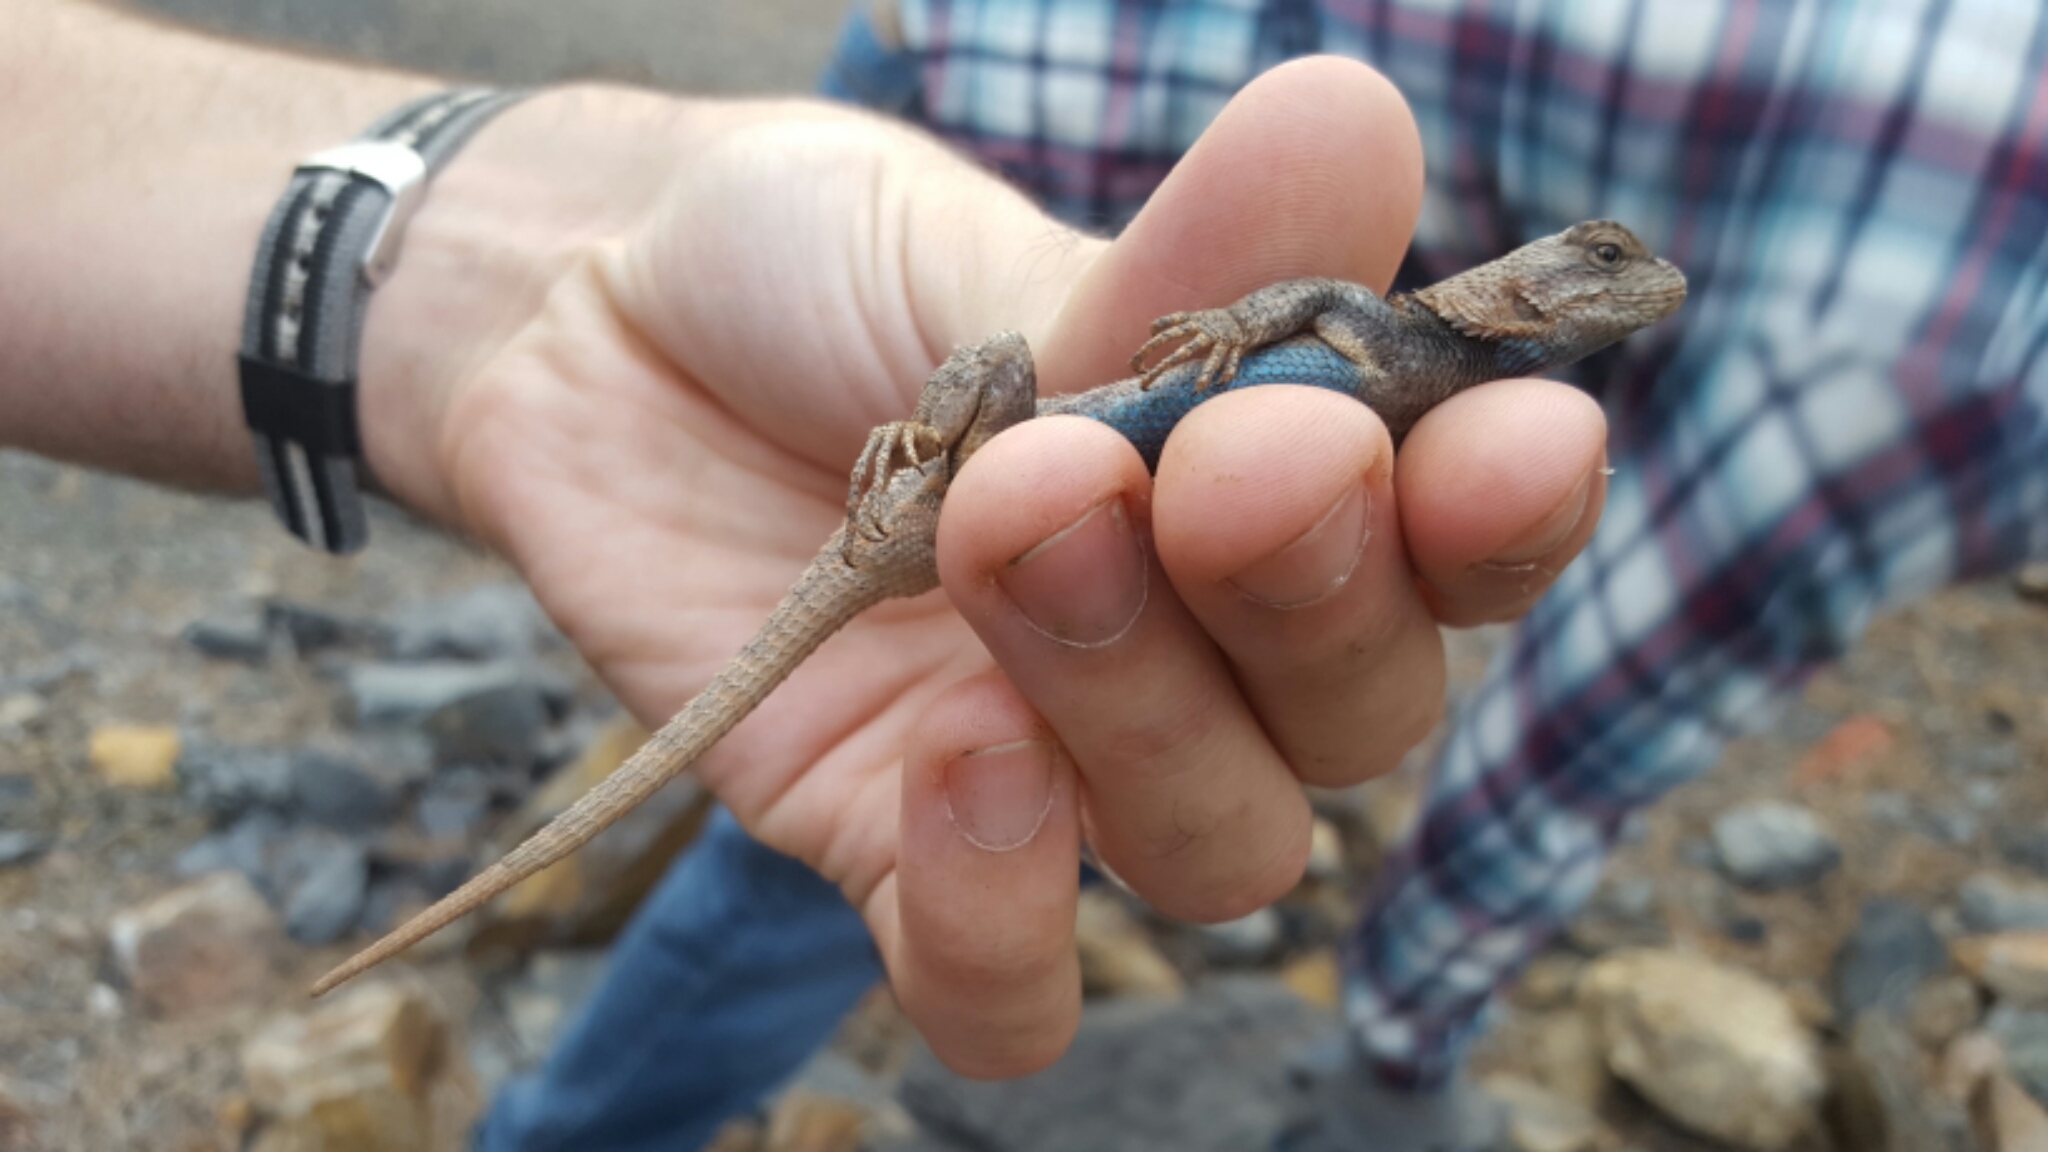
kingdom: Animalia
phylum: Chordata
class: Squamata
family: Phrynosomatidae
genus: Sceloporus
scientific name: Sceloporus consobrinus
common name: Southern prairie lizard
